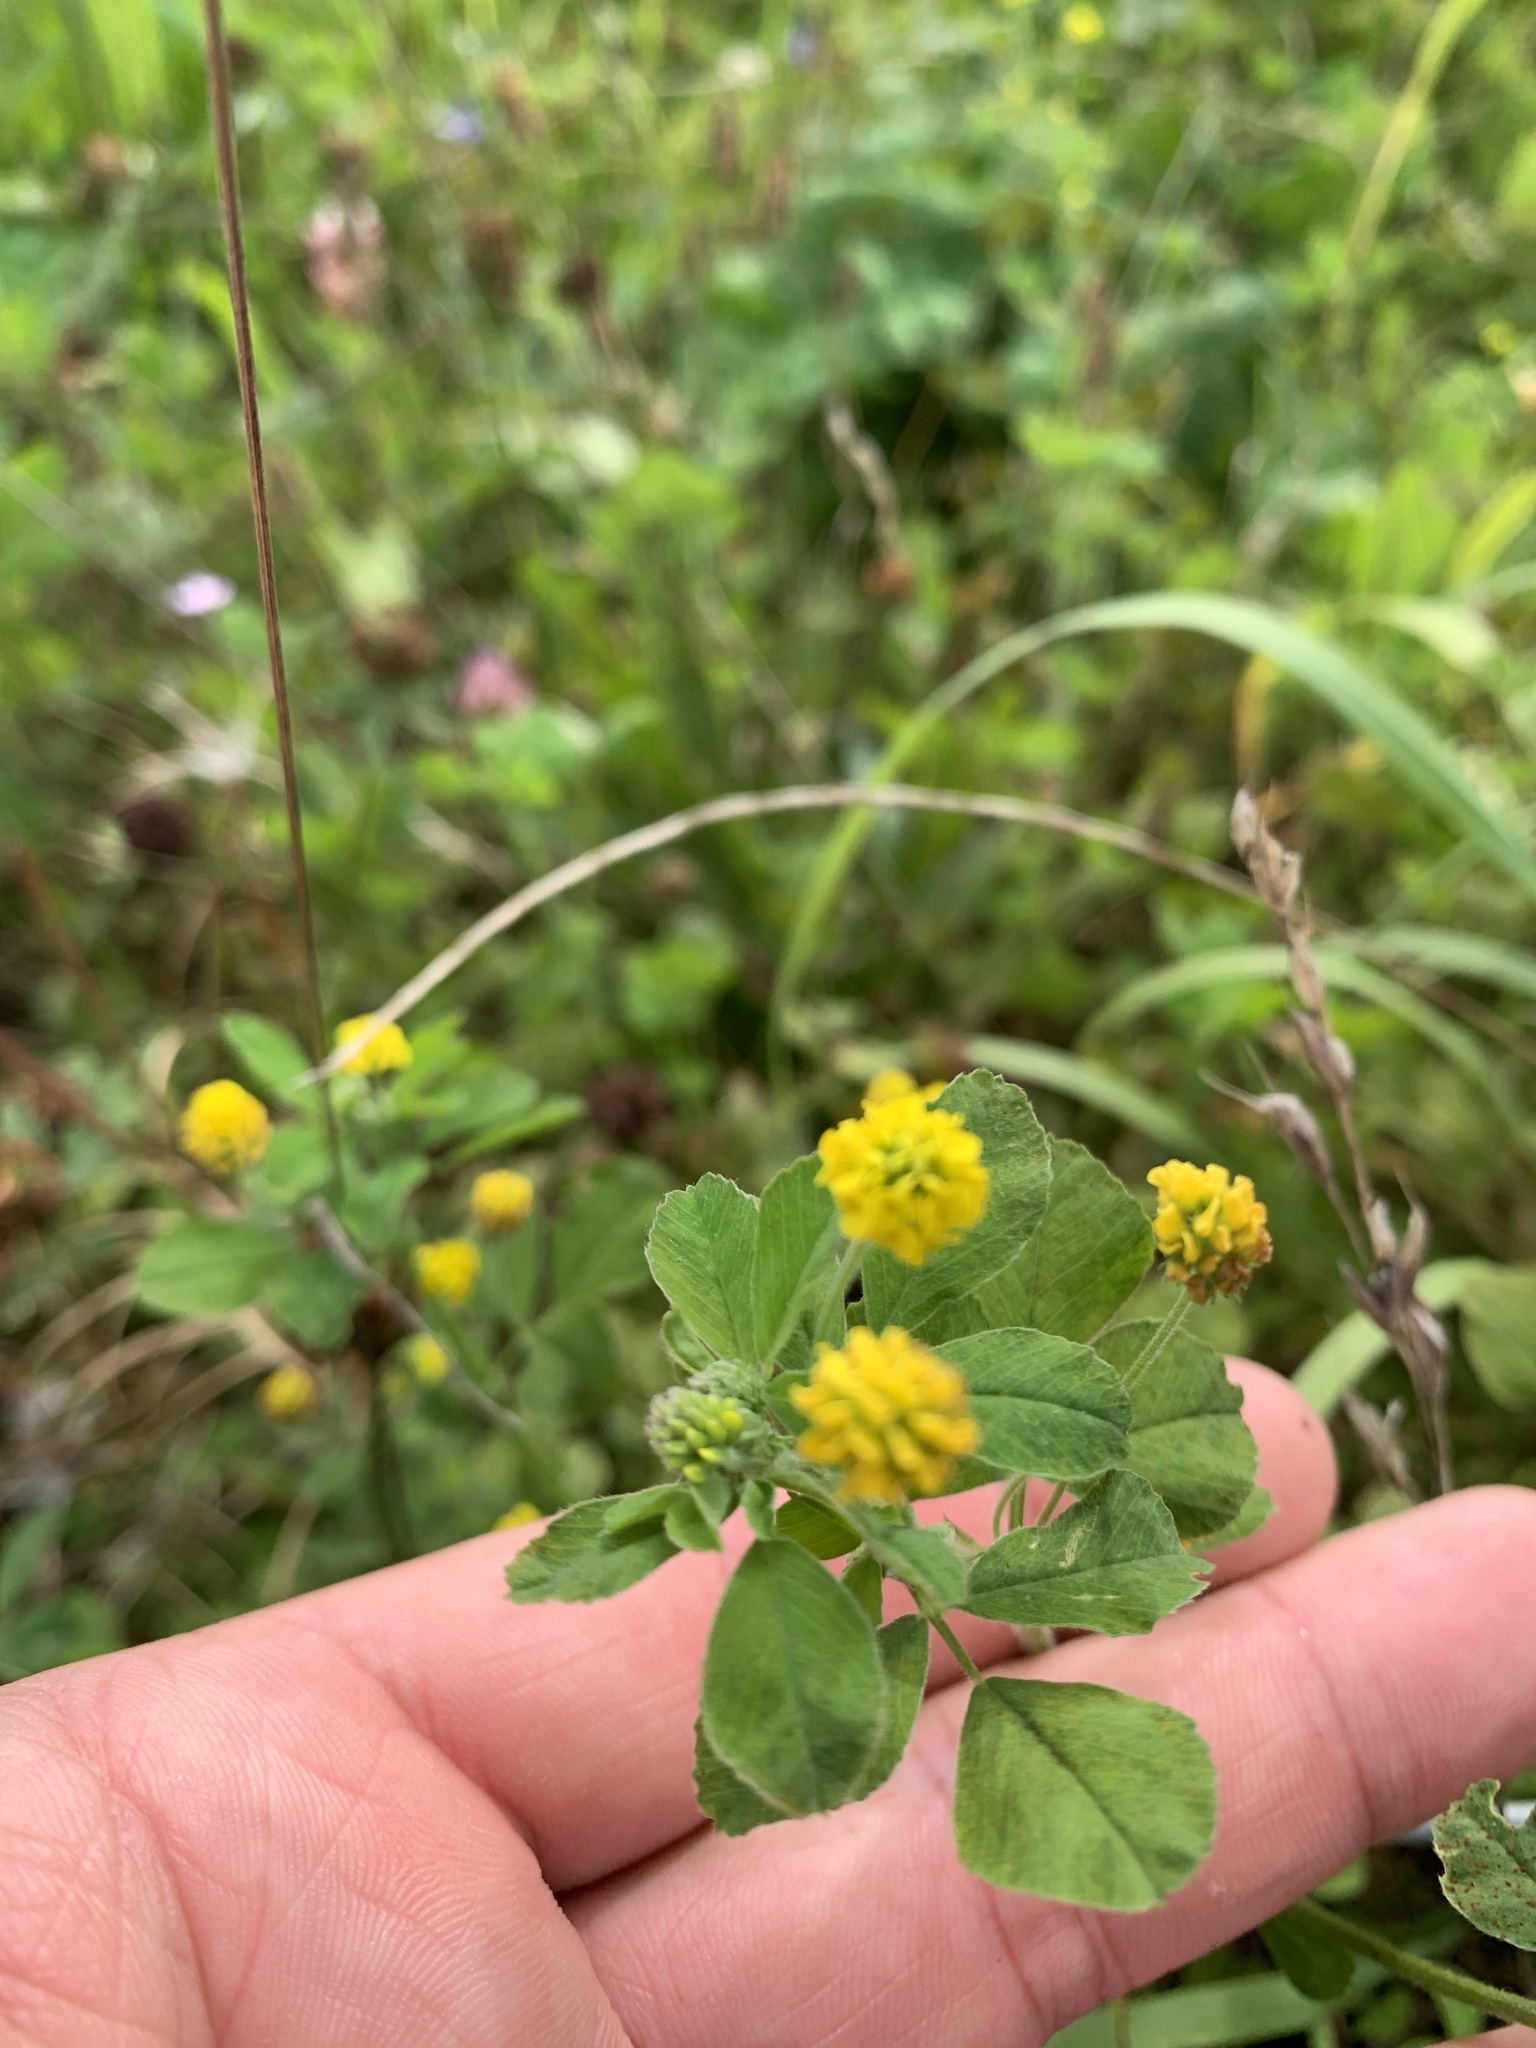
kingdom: Plantae
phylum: Tracheophyta
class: Magnoliopsida
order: Fabales
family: Fabaceae
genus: Medicago
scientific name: Medicago lupulina
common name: Black medick
